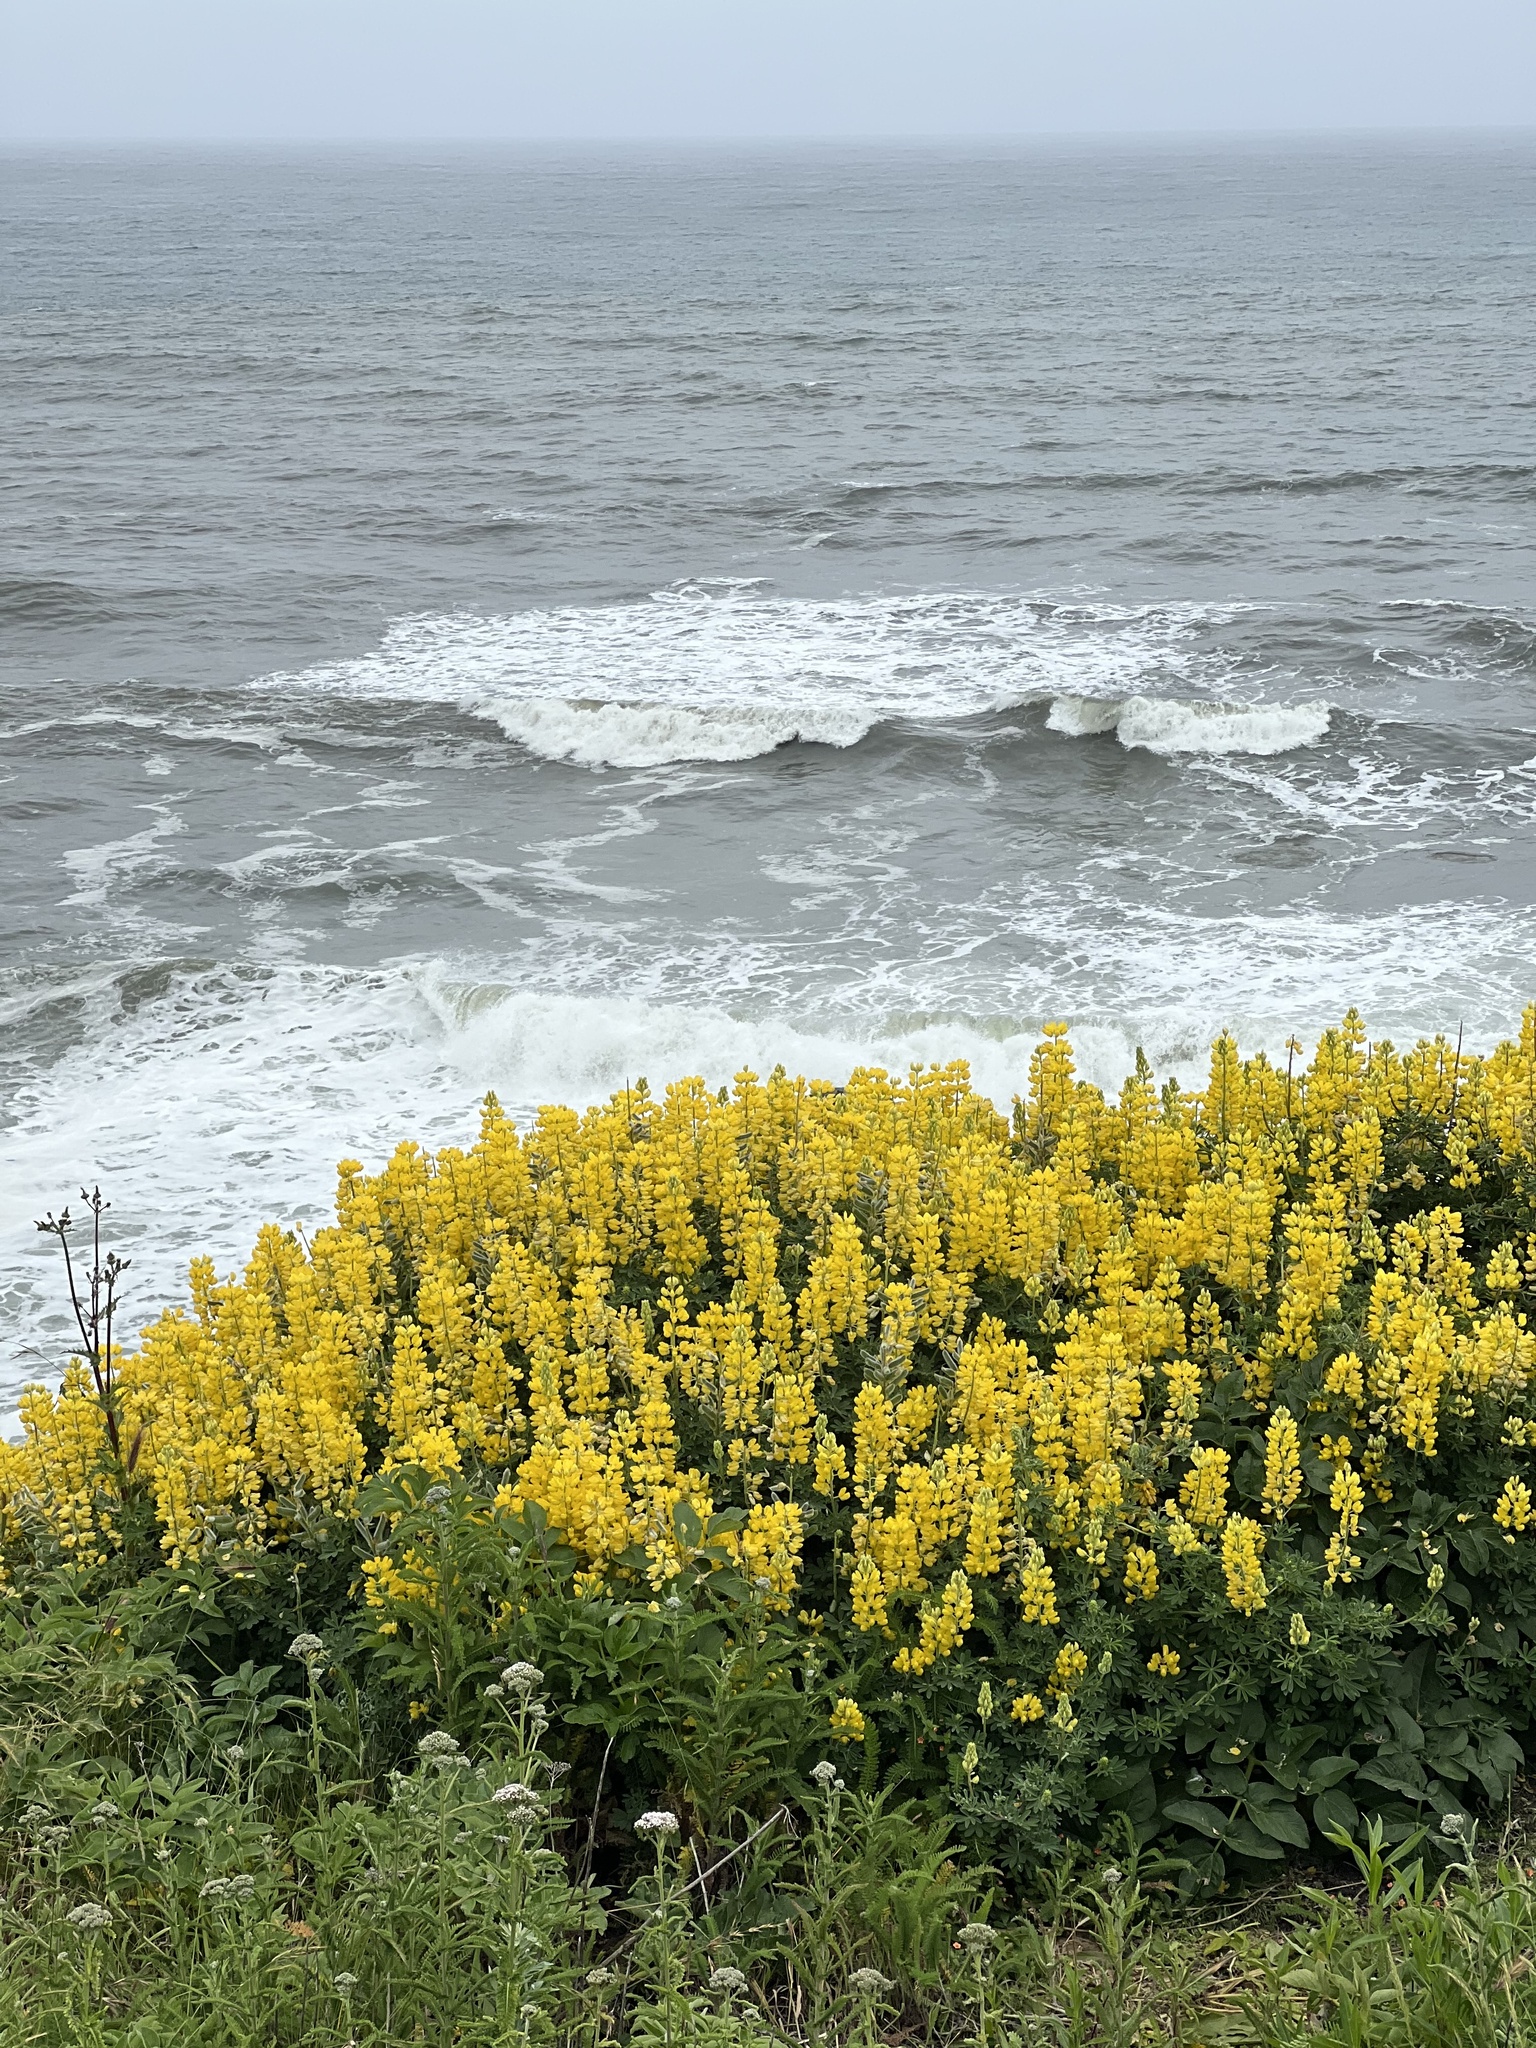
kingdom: Plantae
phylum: Tracheophyta
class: Magnoliopsida
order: Fabales
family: Fabaceae
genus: Lupinus
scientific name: Lupinus arboreus
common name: Yellow bush lupine
